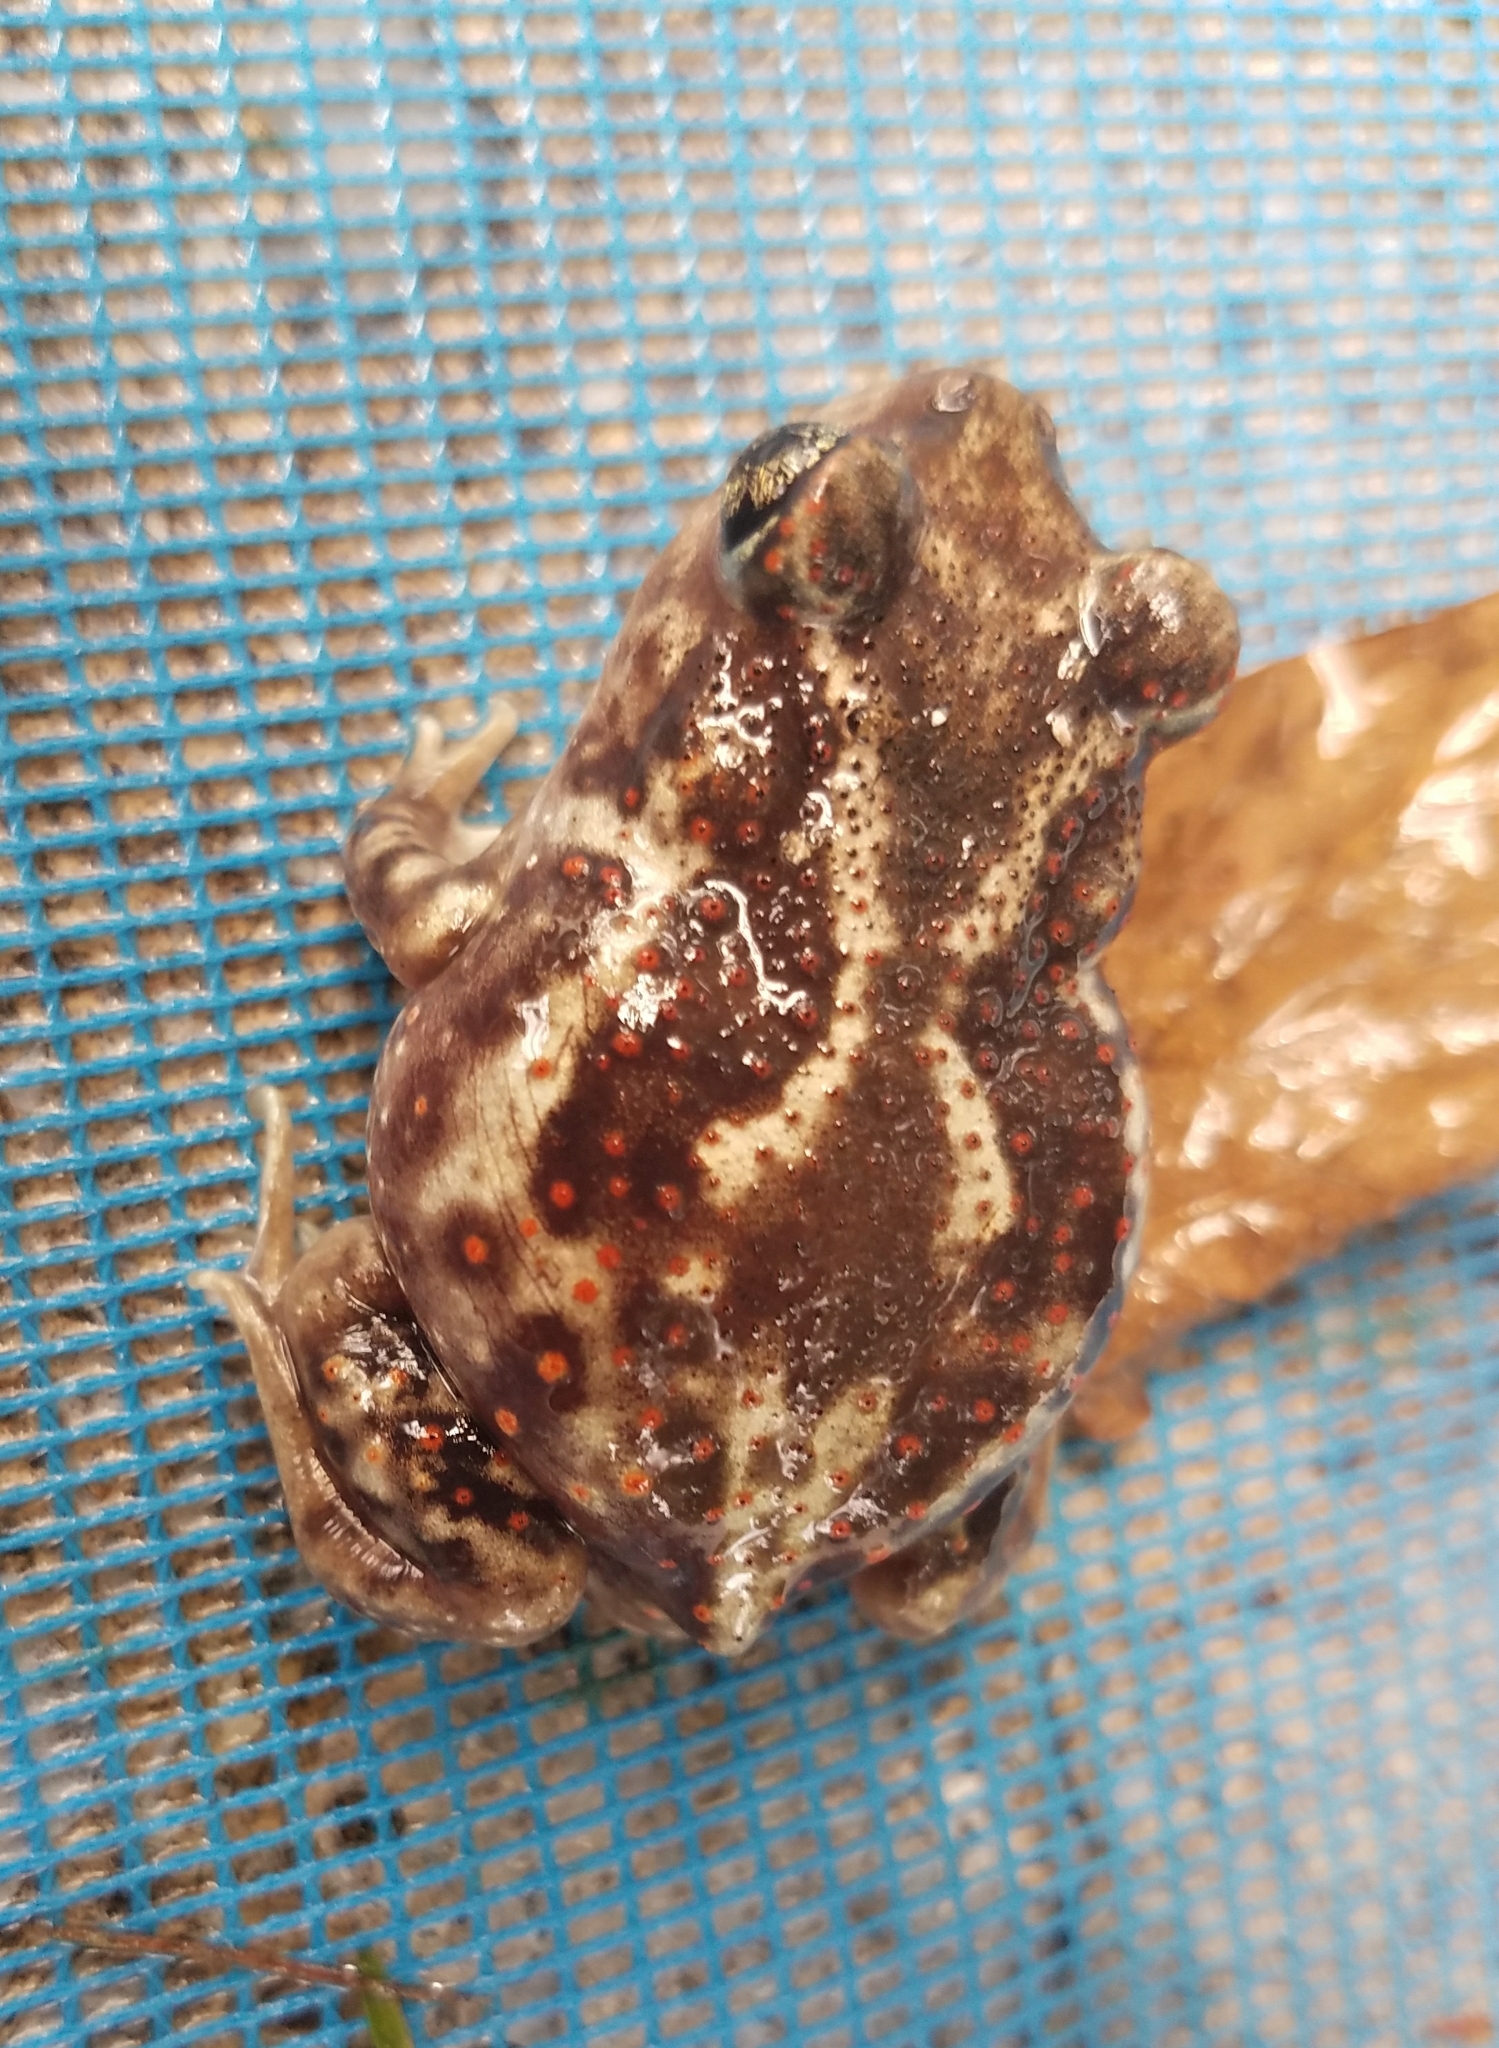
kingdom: Animalia
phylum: Chordata
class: Amphibia
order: Anura
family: Scaphiopodidae
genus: Scaphiopus
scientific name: Scaphiopus holbrookii
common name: Eastern spadefoot toad
